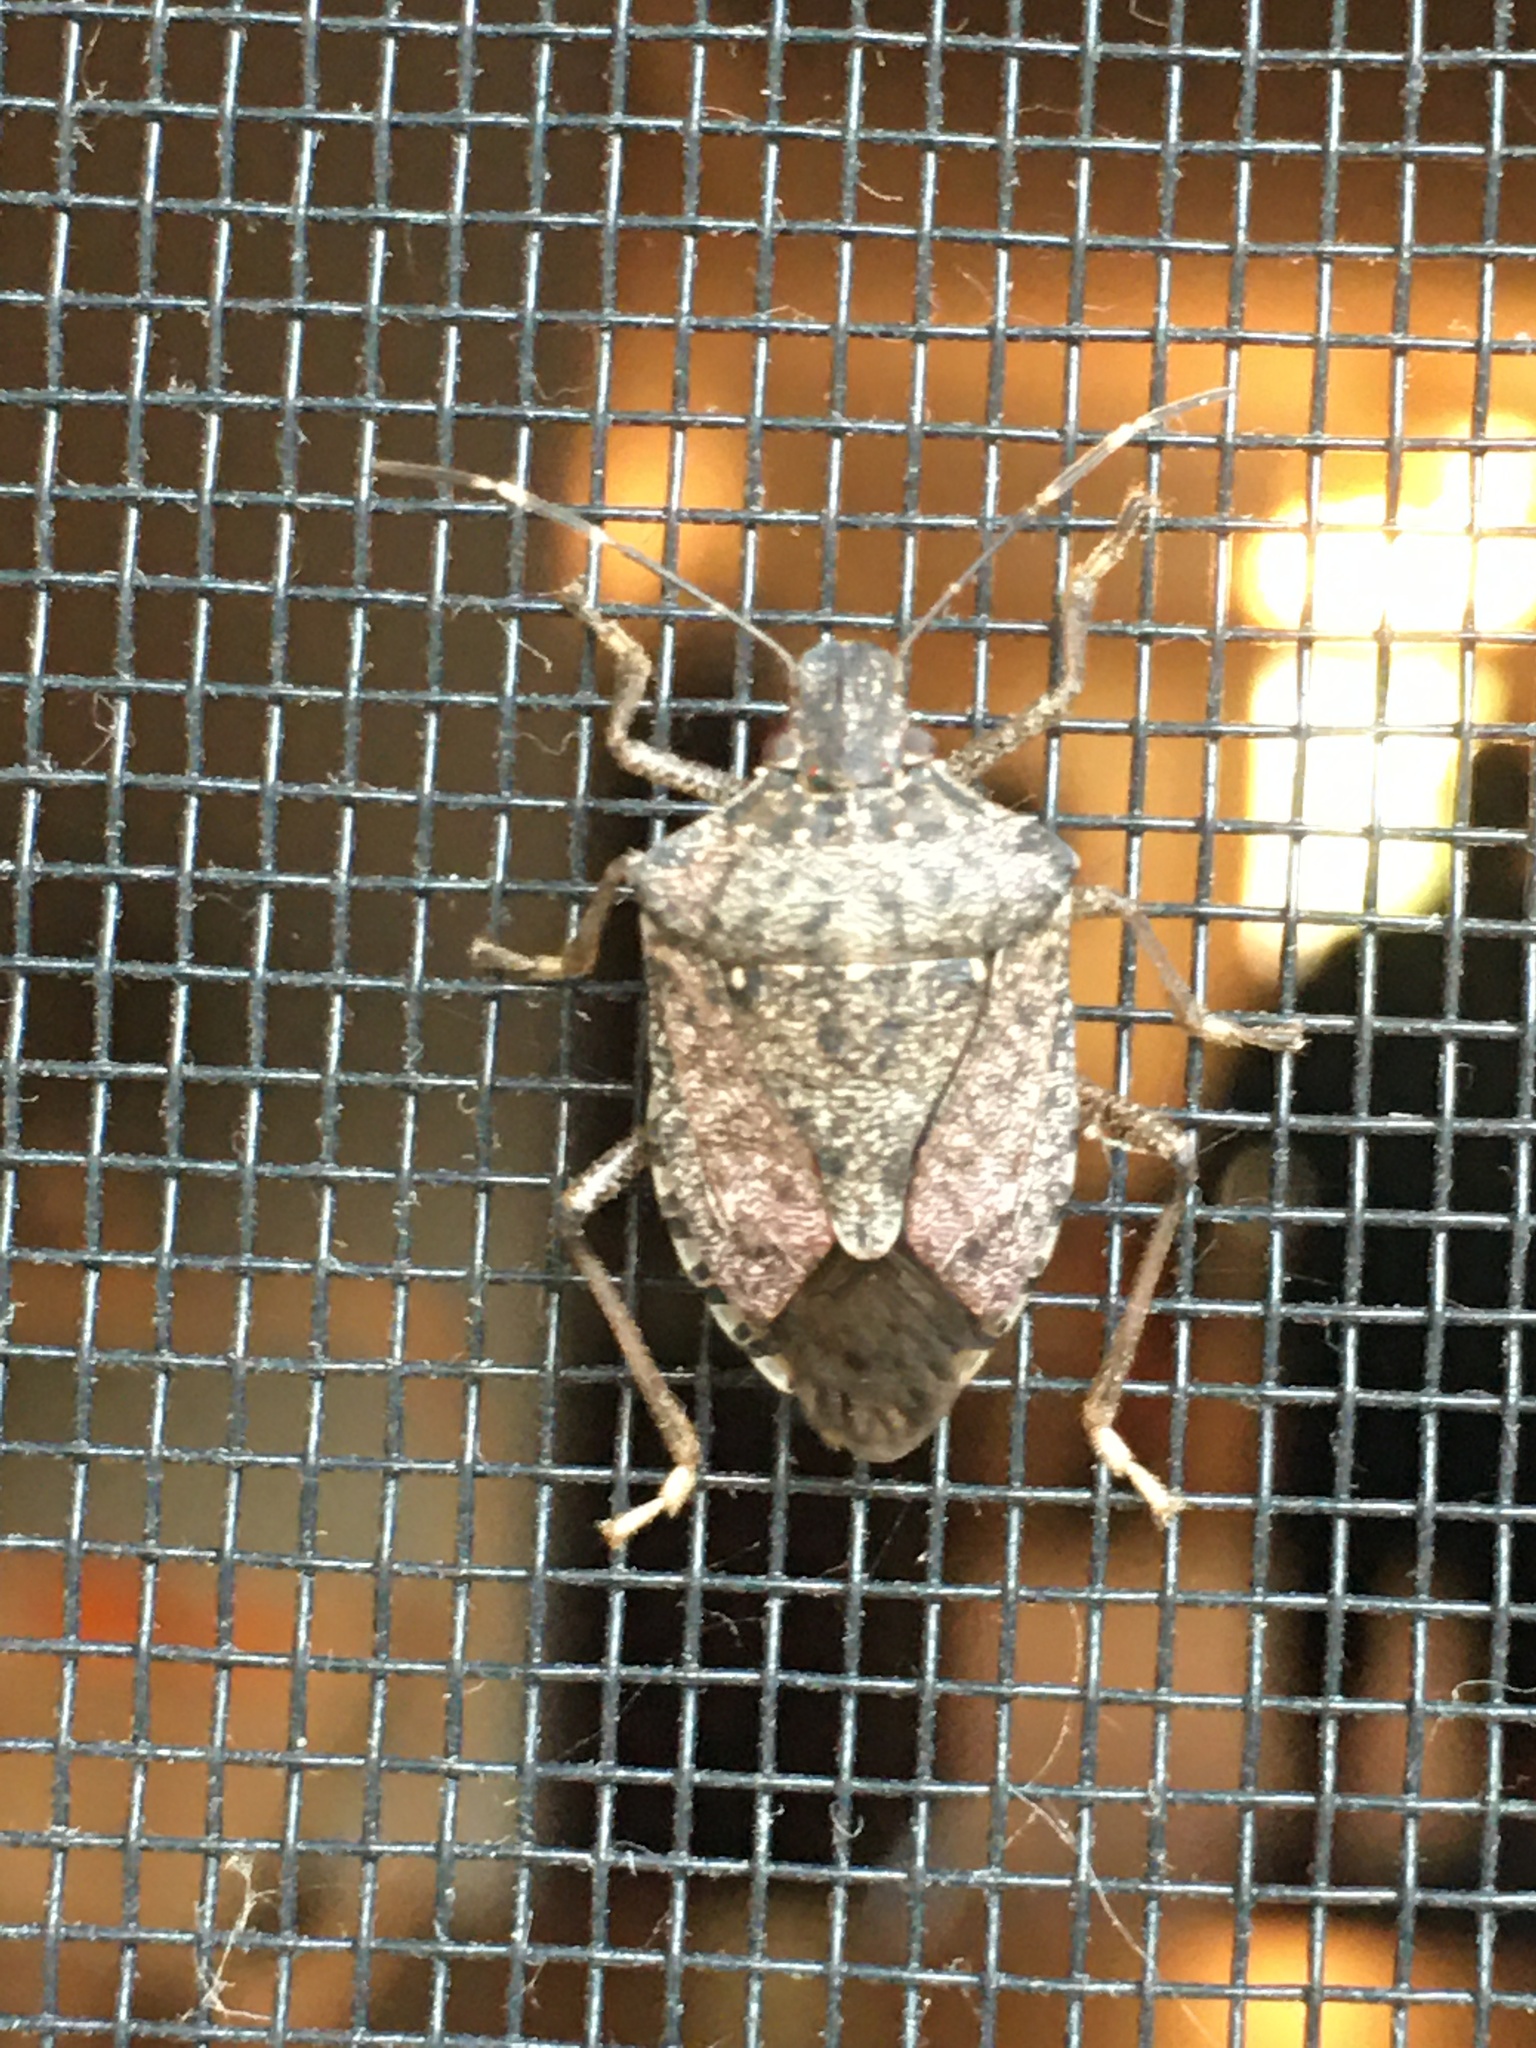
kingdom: Animalia
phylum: Arthropoda
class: Insecta
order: Hemiptera
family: Pentatomidae
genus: Halyomorpha
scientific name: Halyomorpha halys
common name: Brown marmorated stink bug
